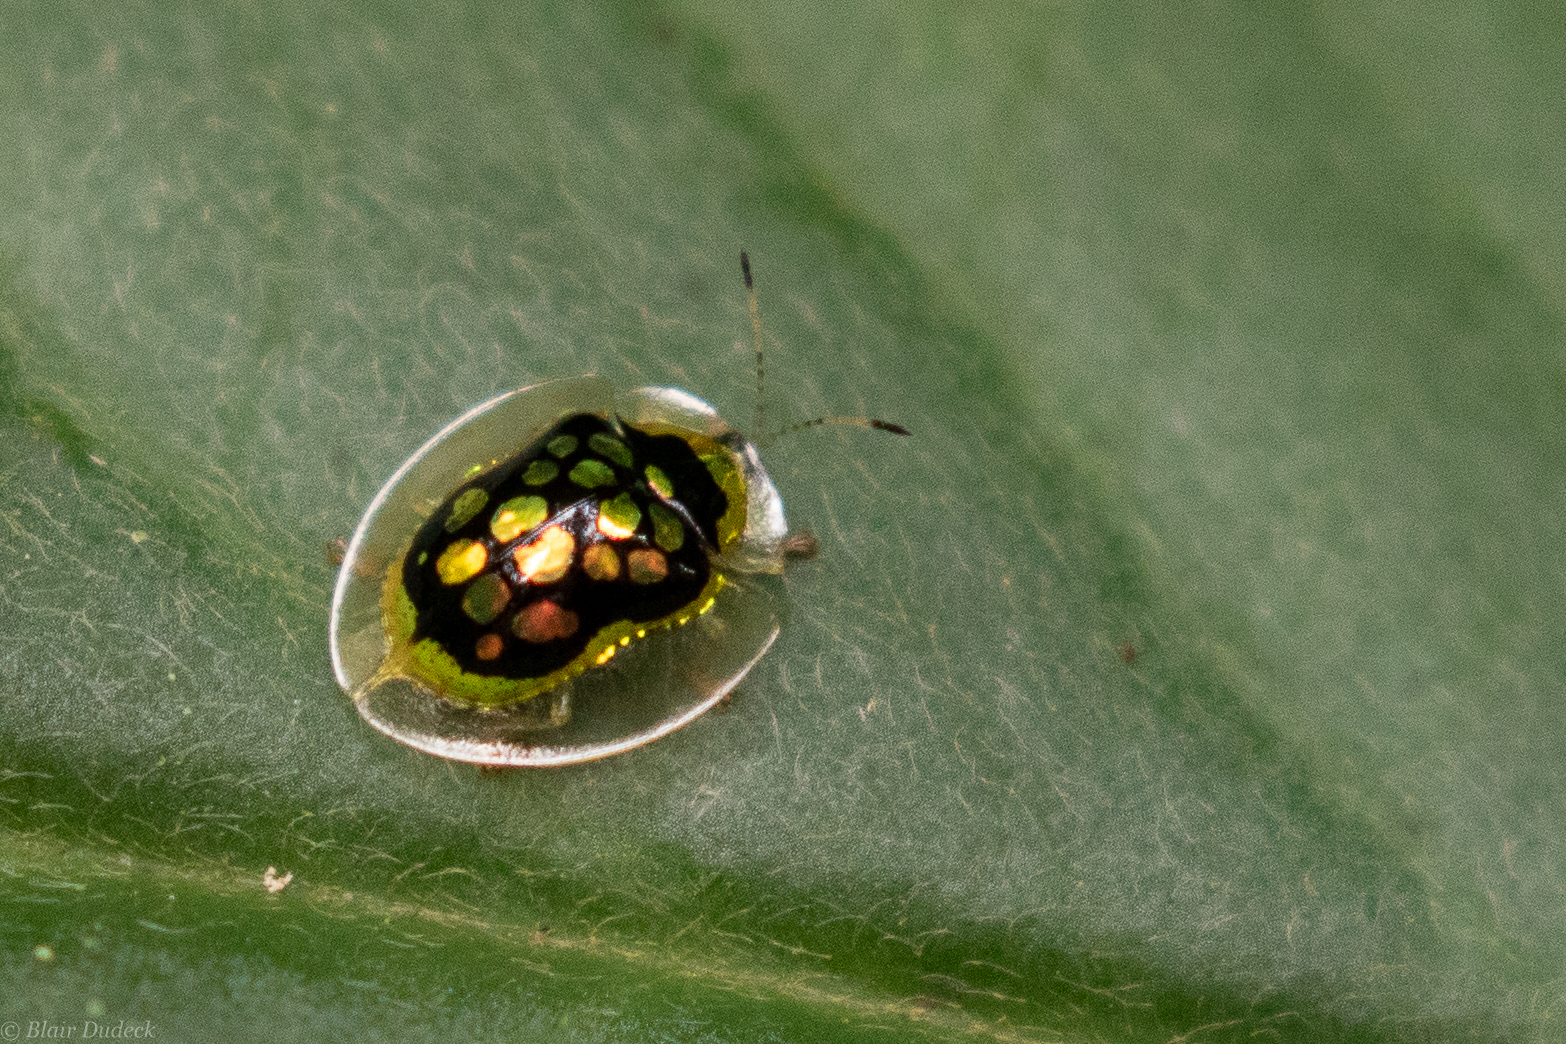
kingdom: Animalia
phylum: Arthropoda
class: Insecta
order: Coleoptera
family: Chrysomelidae
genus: Plagiometriona
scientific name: Plagiometriona zelleri
